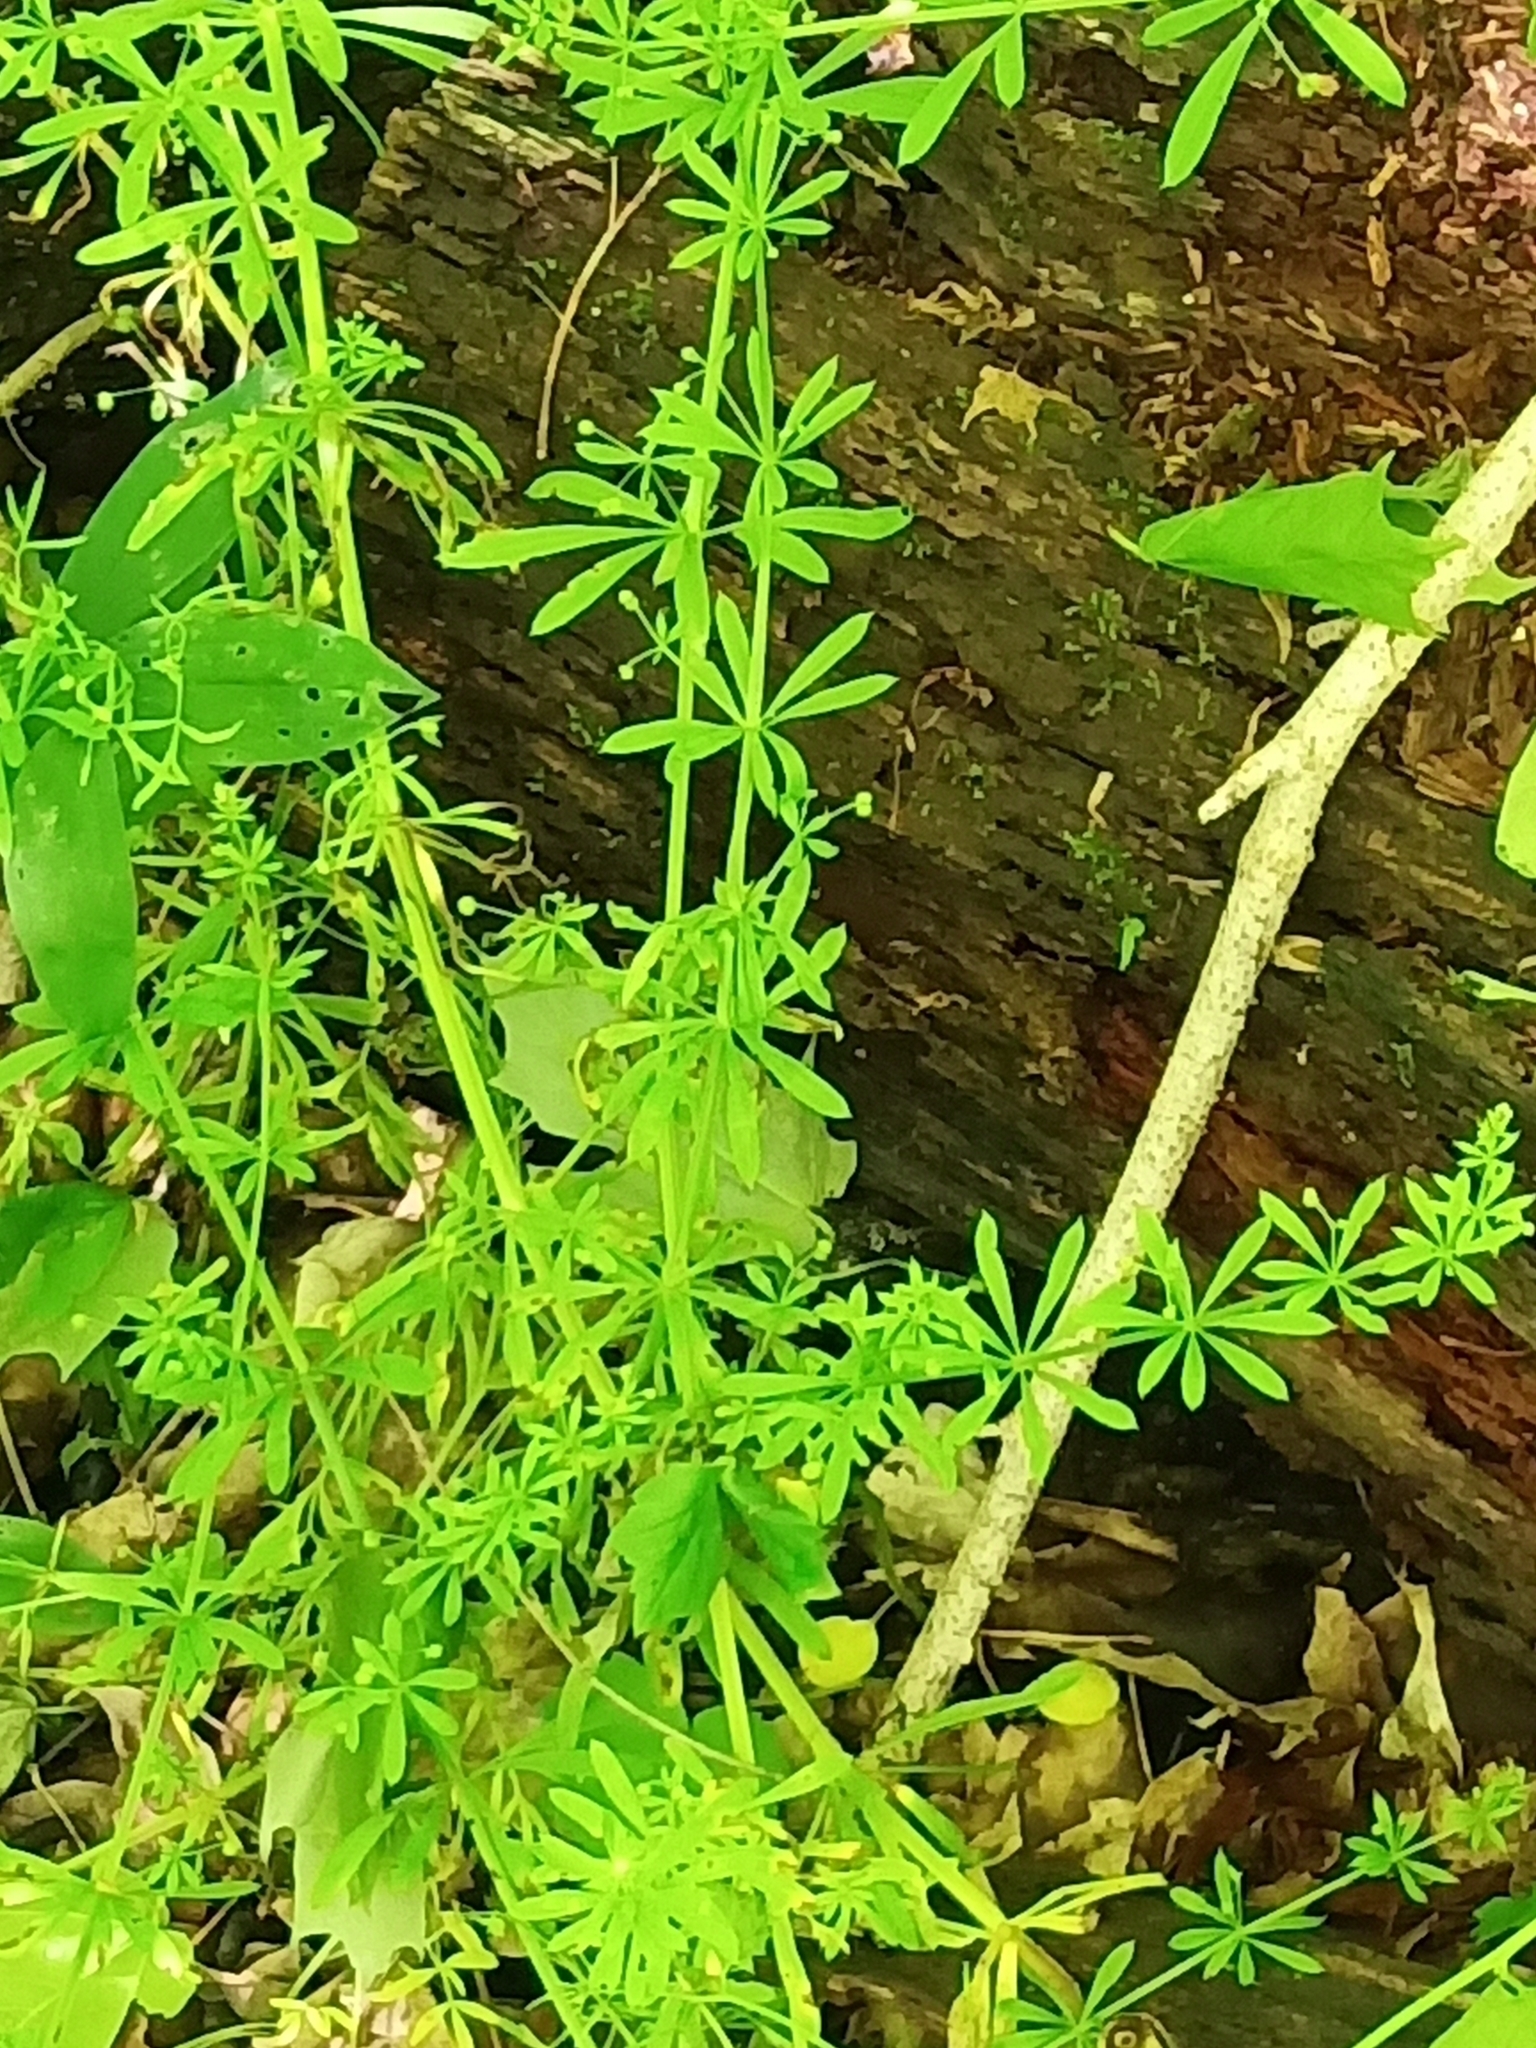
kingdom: Plantae
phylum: Tracheophyta
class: Magnoliopsida
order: Gentianales
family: Rubiaceae
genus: Galium
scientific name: Galium aparine
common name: Cleavers
